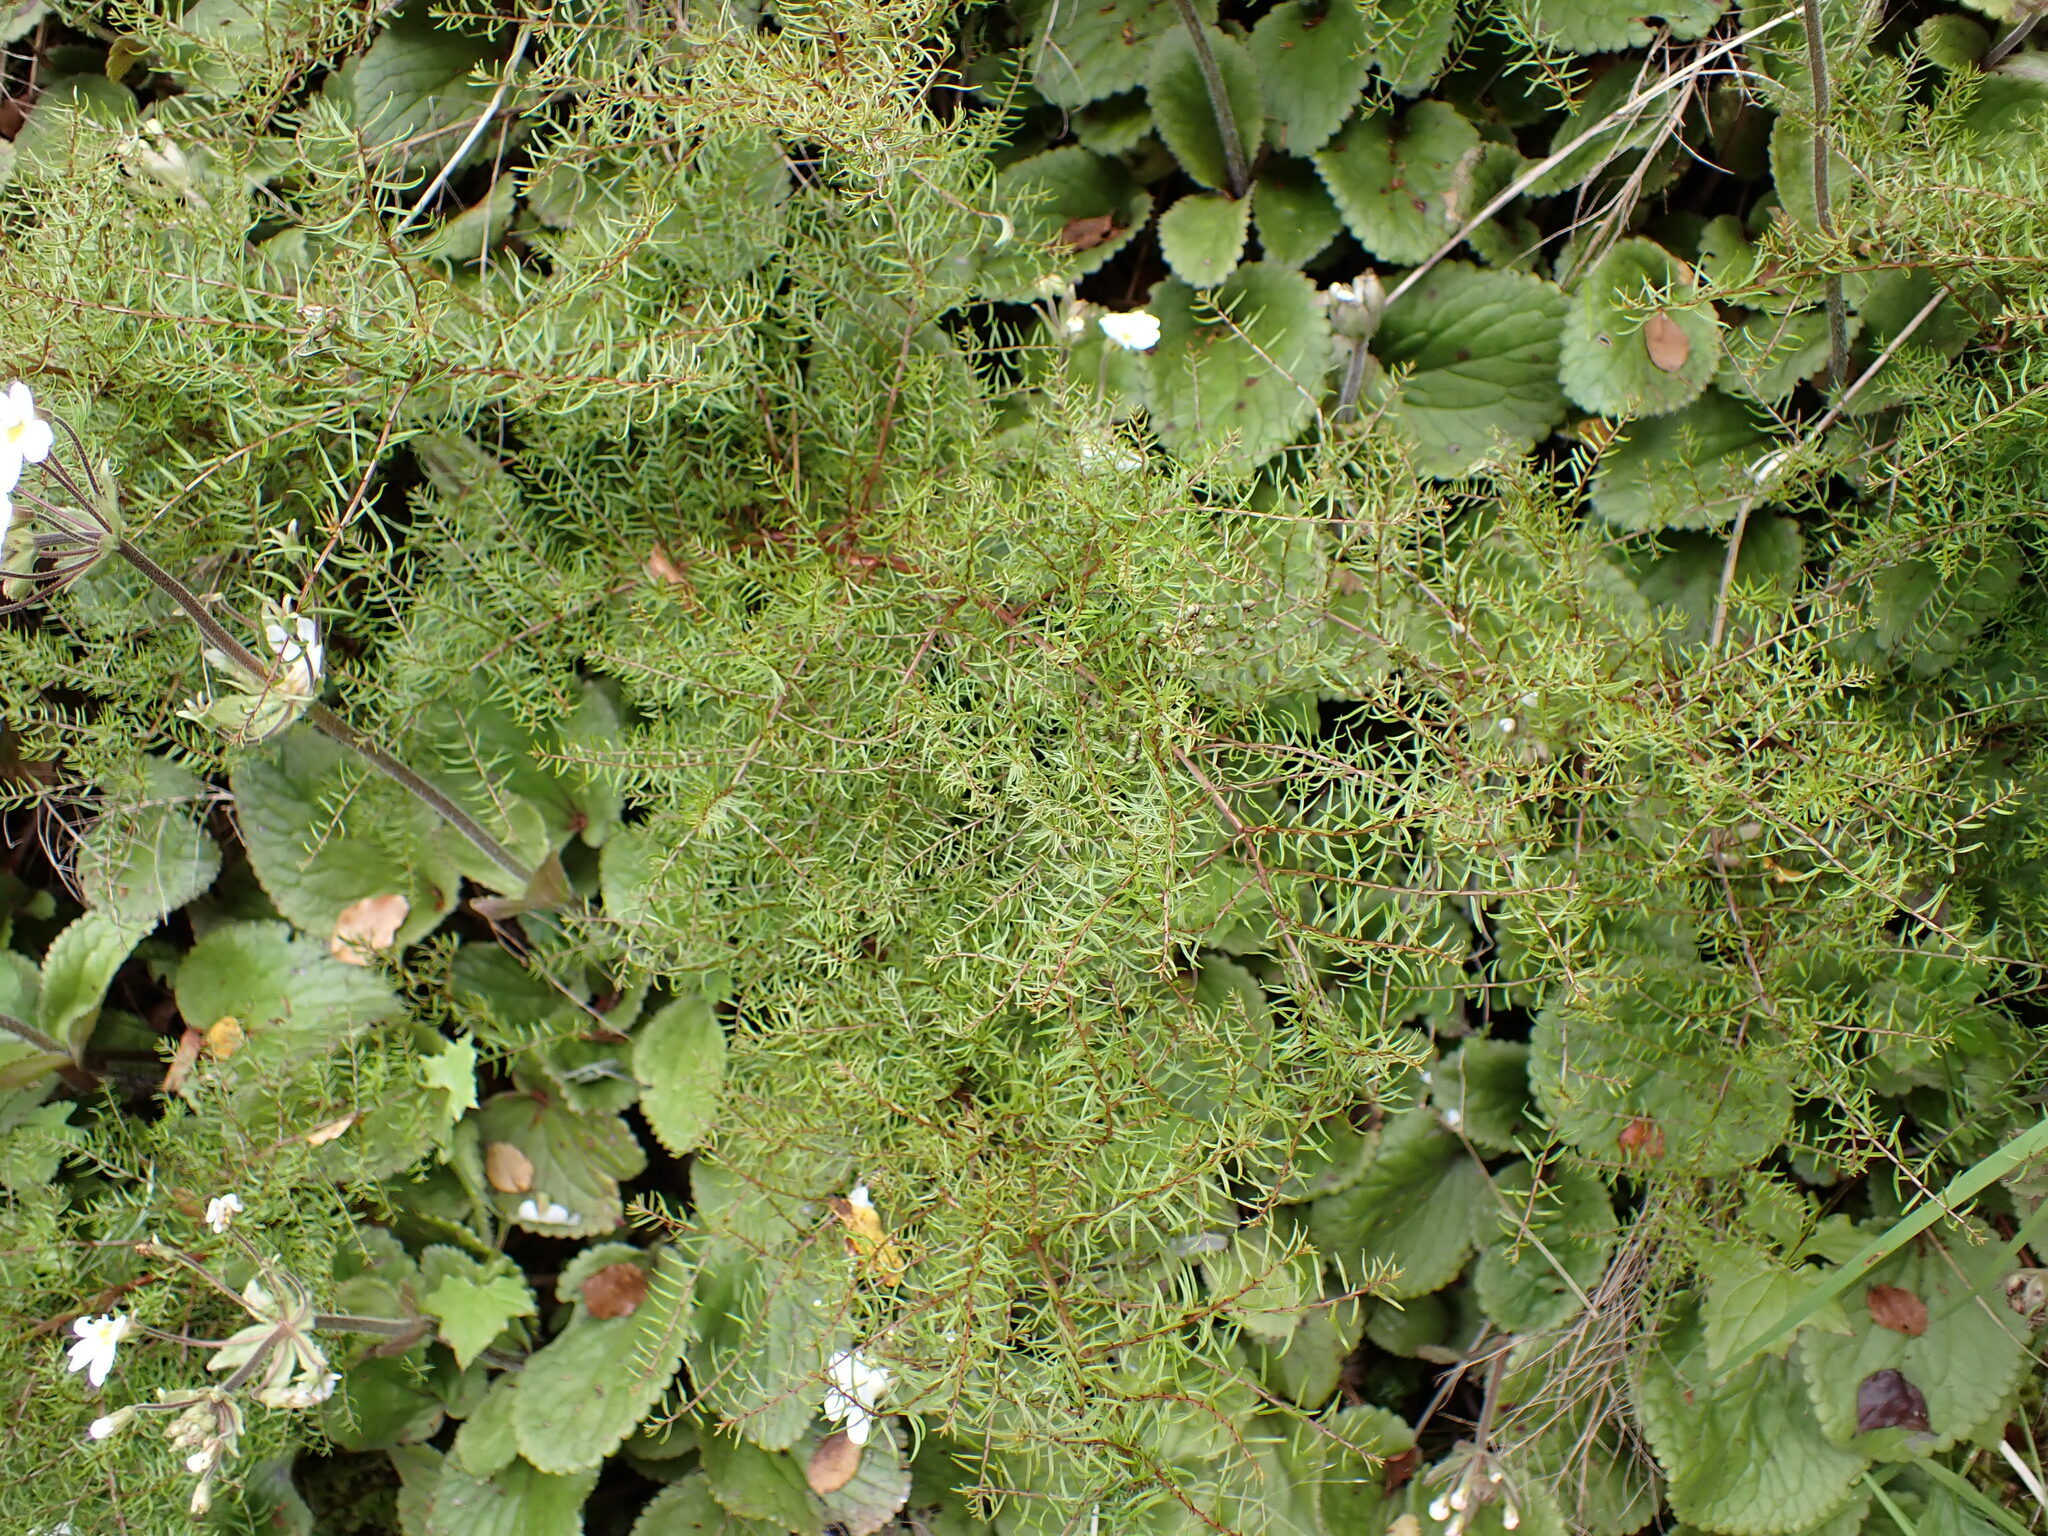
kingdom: Plantae
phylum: Tracheophyta
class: Magnoliopsida
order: Cucurbitales
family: Coriariaceae
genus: Coriaria
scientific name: Coriaria angustissima
